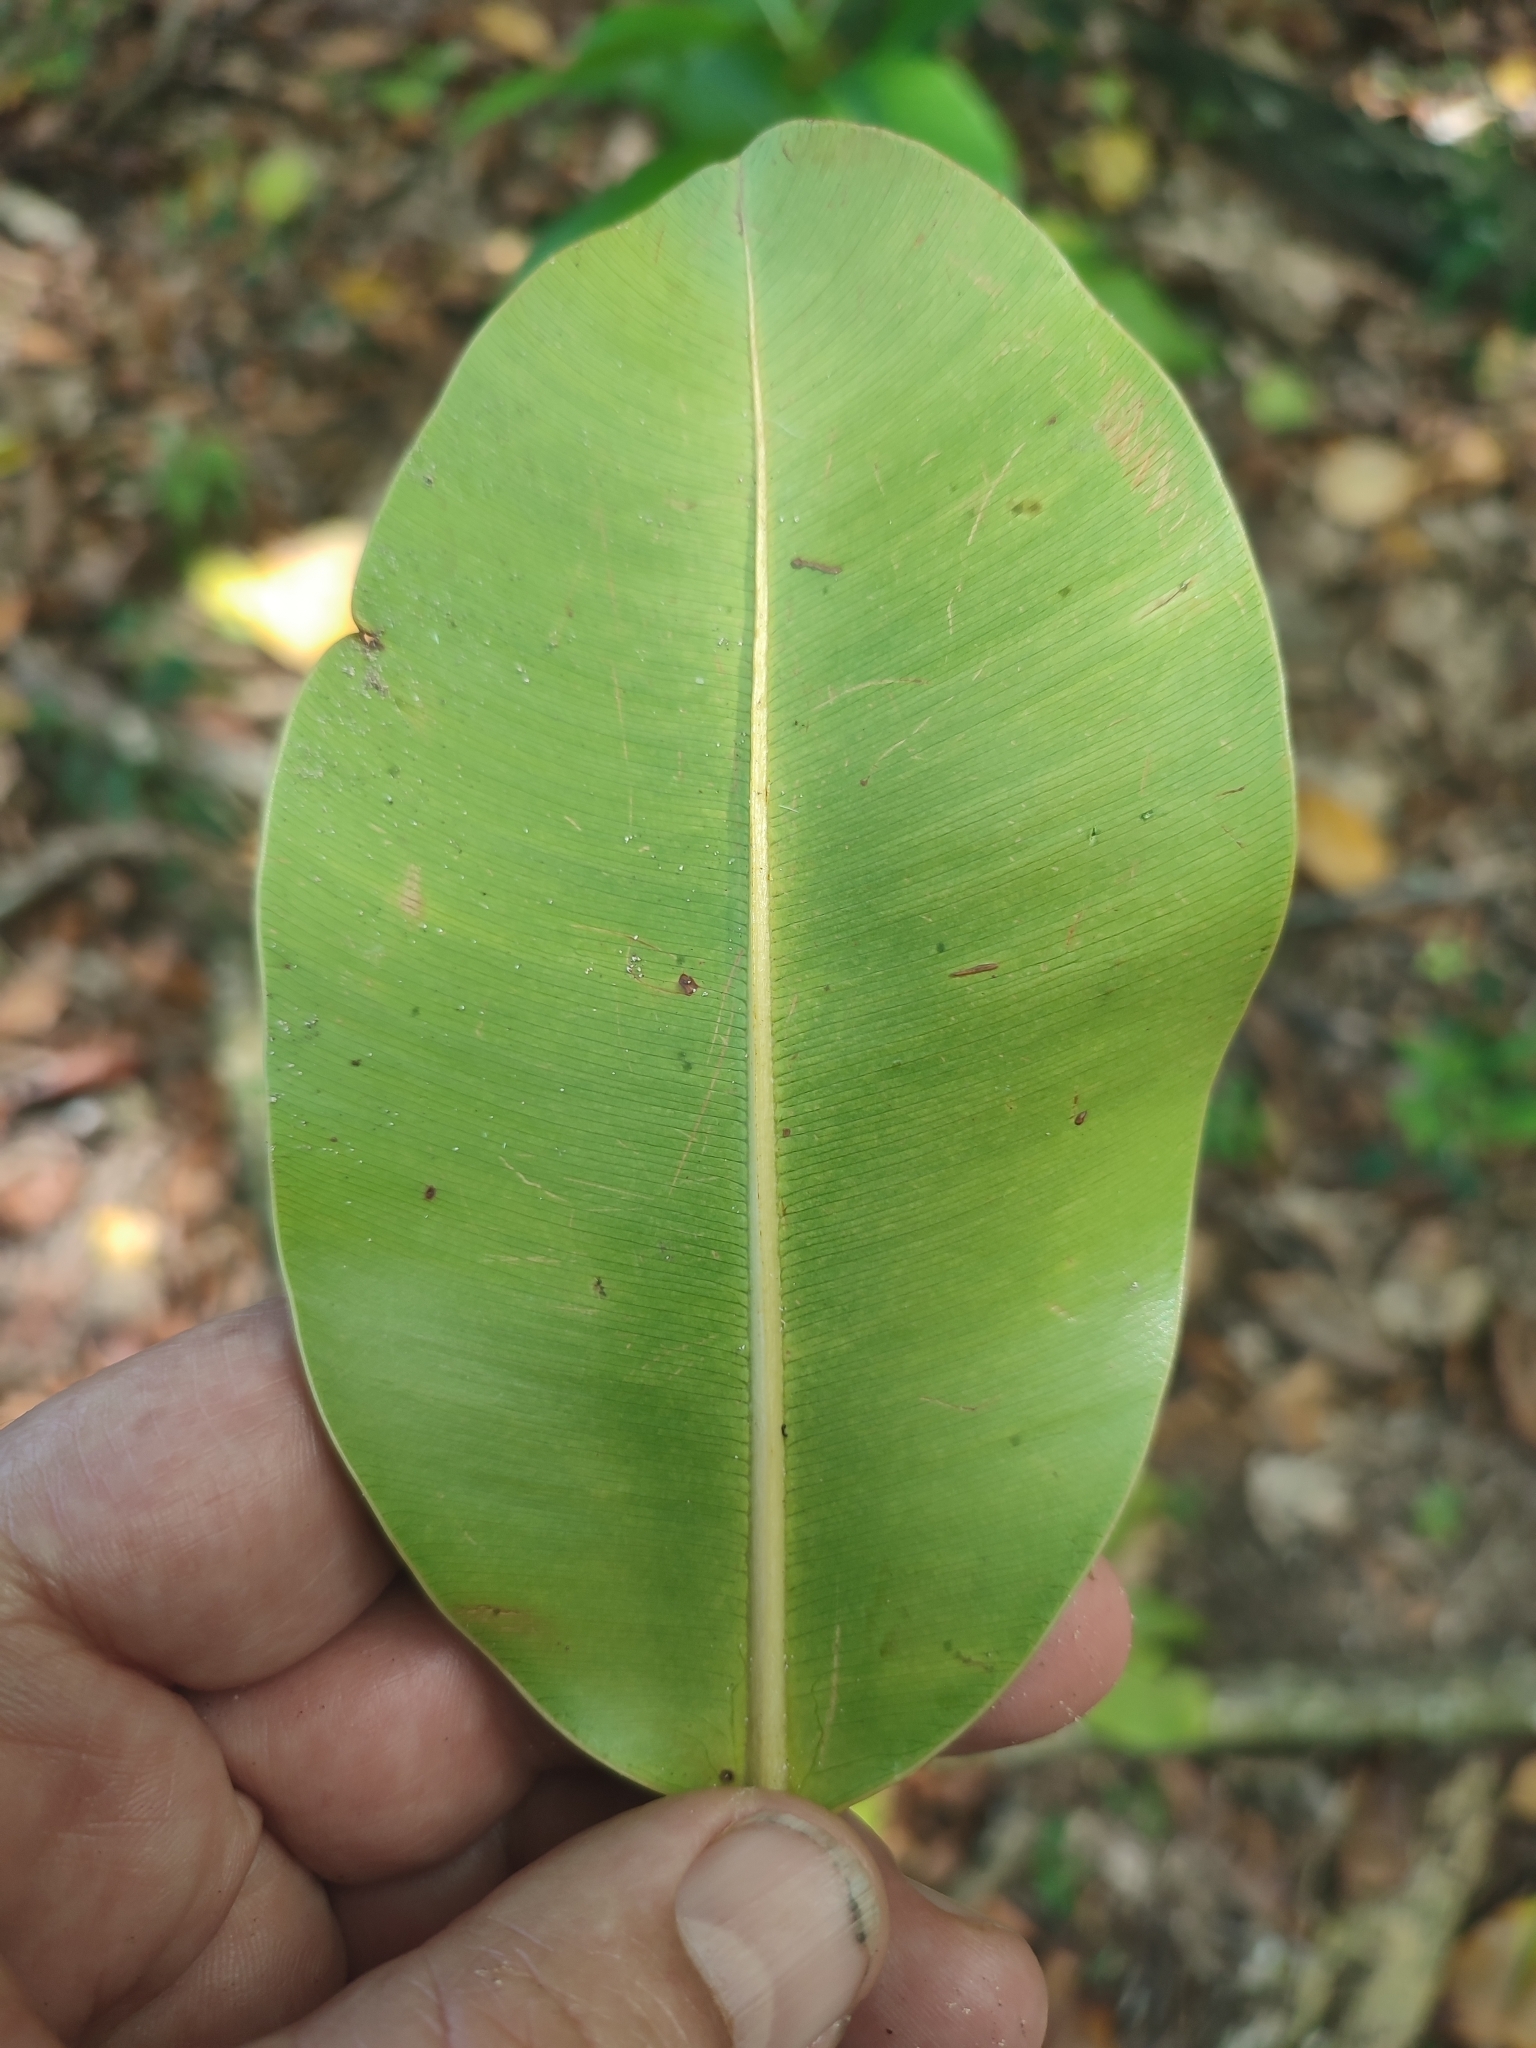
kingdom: Plantae
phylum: Tracheophyta
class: Magnoliopsida
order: Malpighiales
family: Calophyllaceae
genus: Calophyllum
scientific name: Calophyllum inophyllum
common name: Alexandrian laurel
